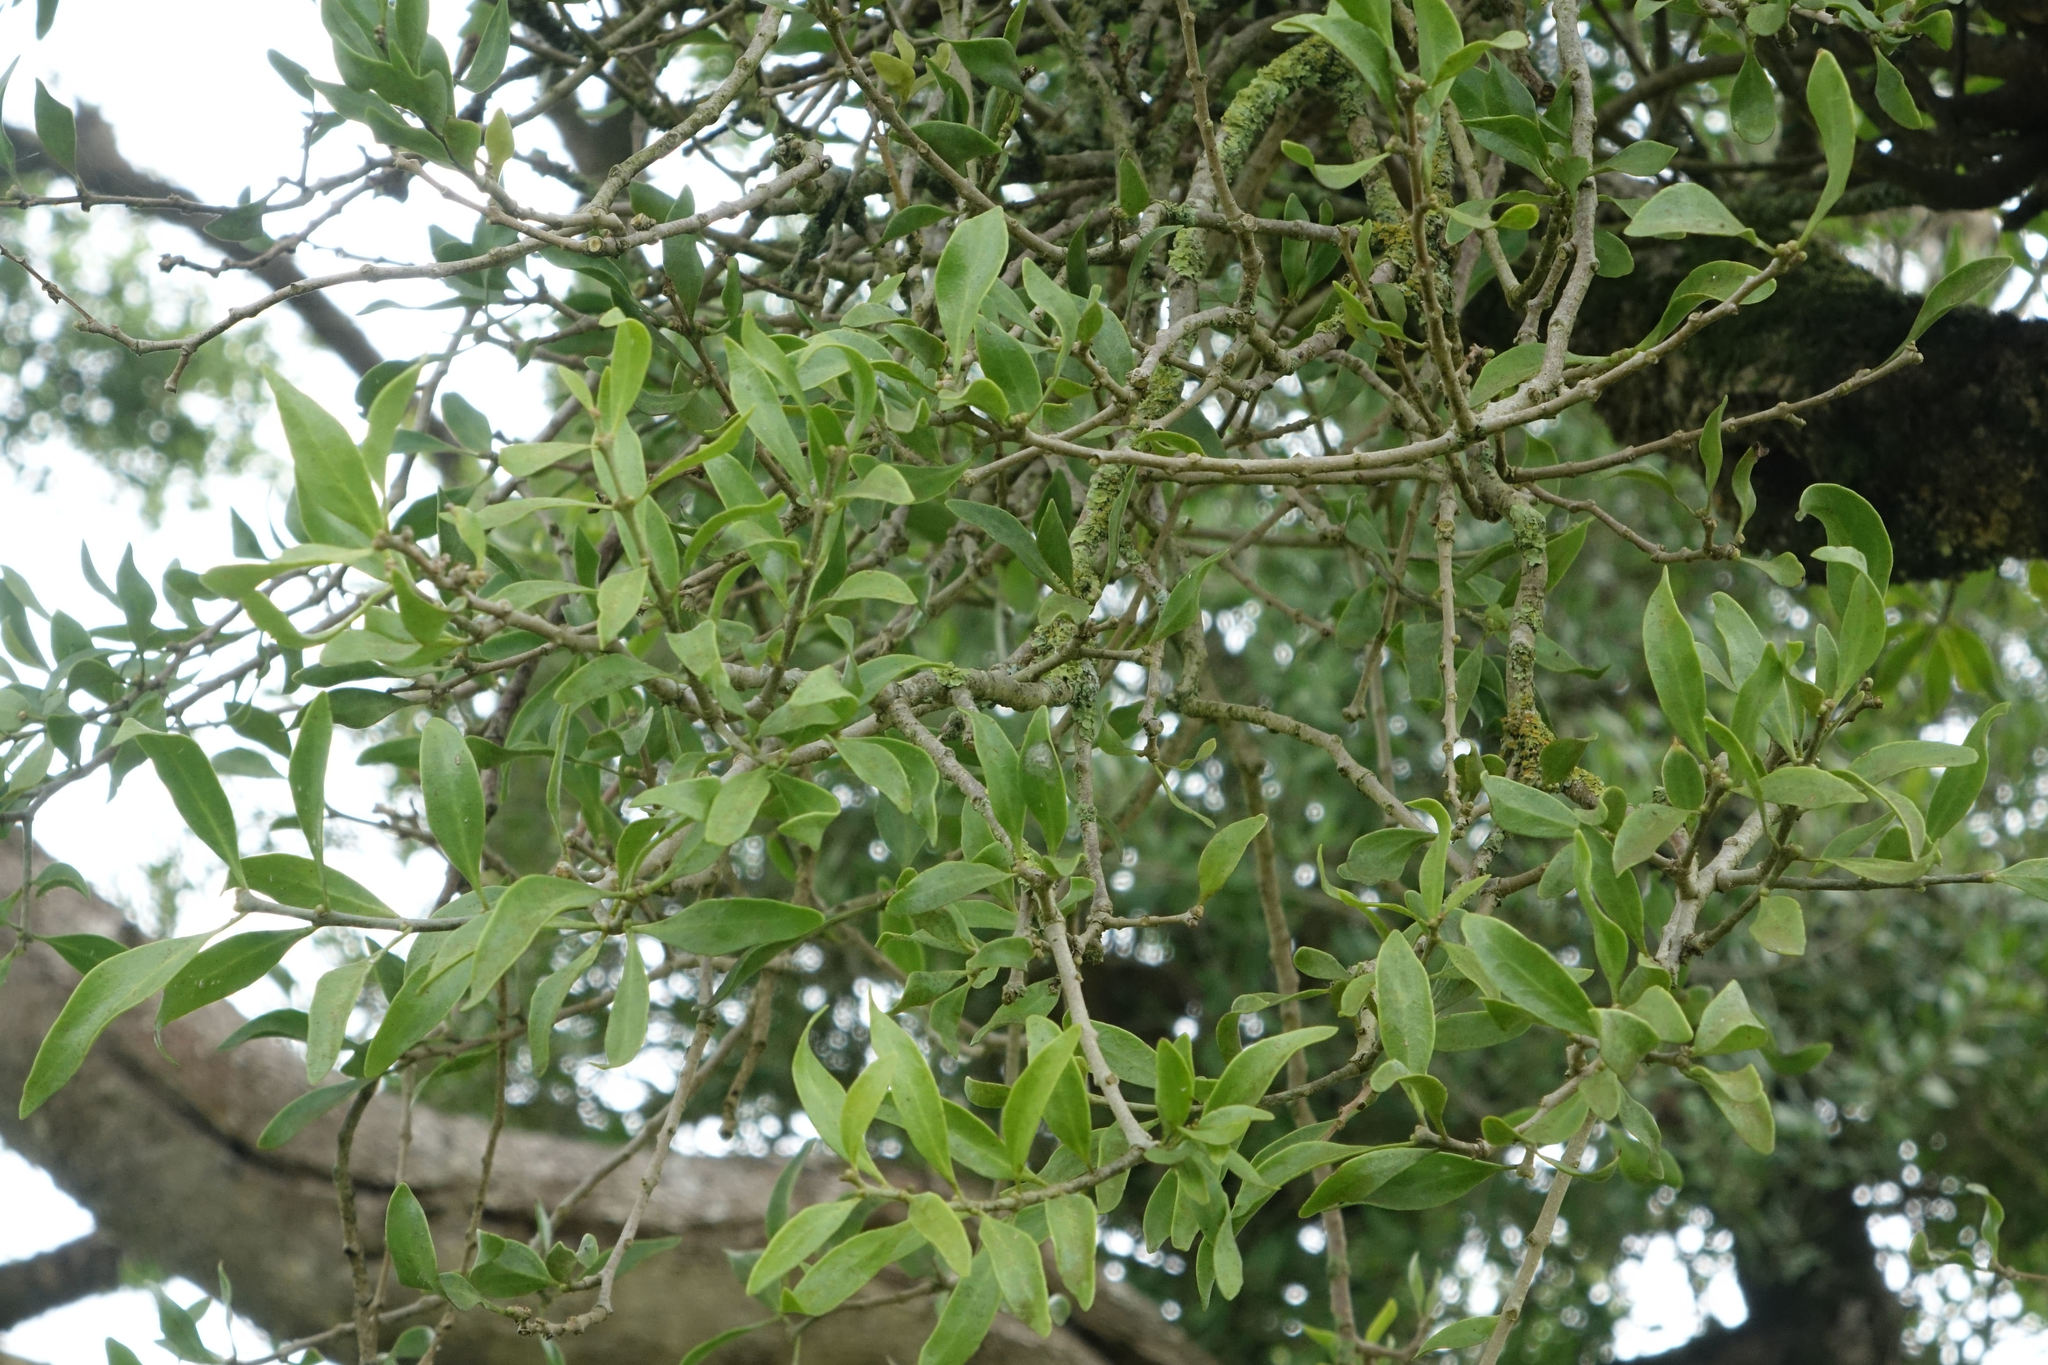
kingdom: Plantae
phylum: Tracheophyta
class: Magnoliopsida
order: Santalales
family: Loranthaceae
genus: Tupeia
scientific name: Tupeia antarctica
